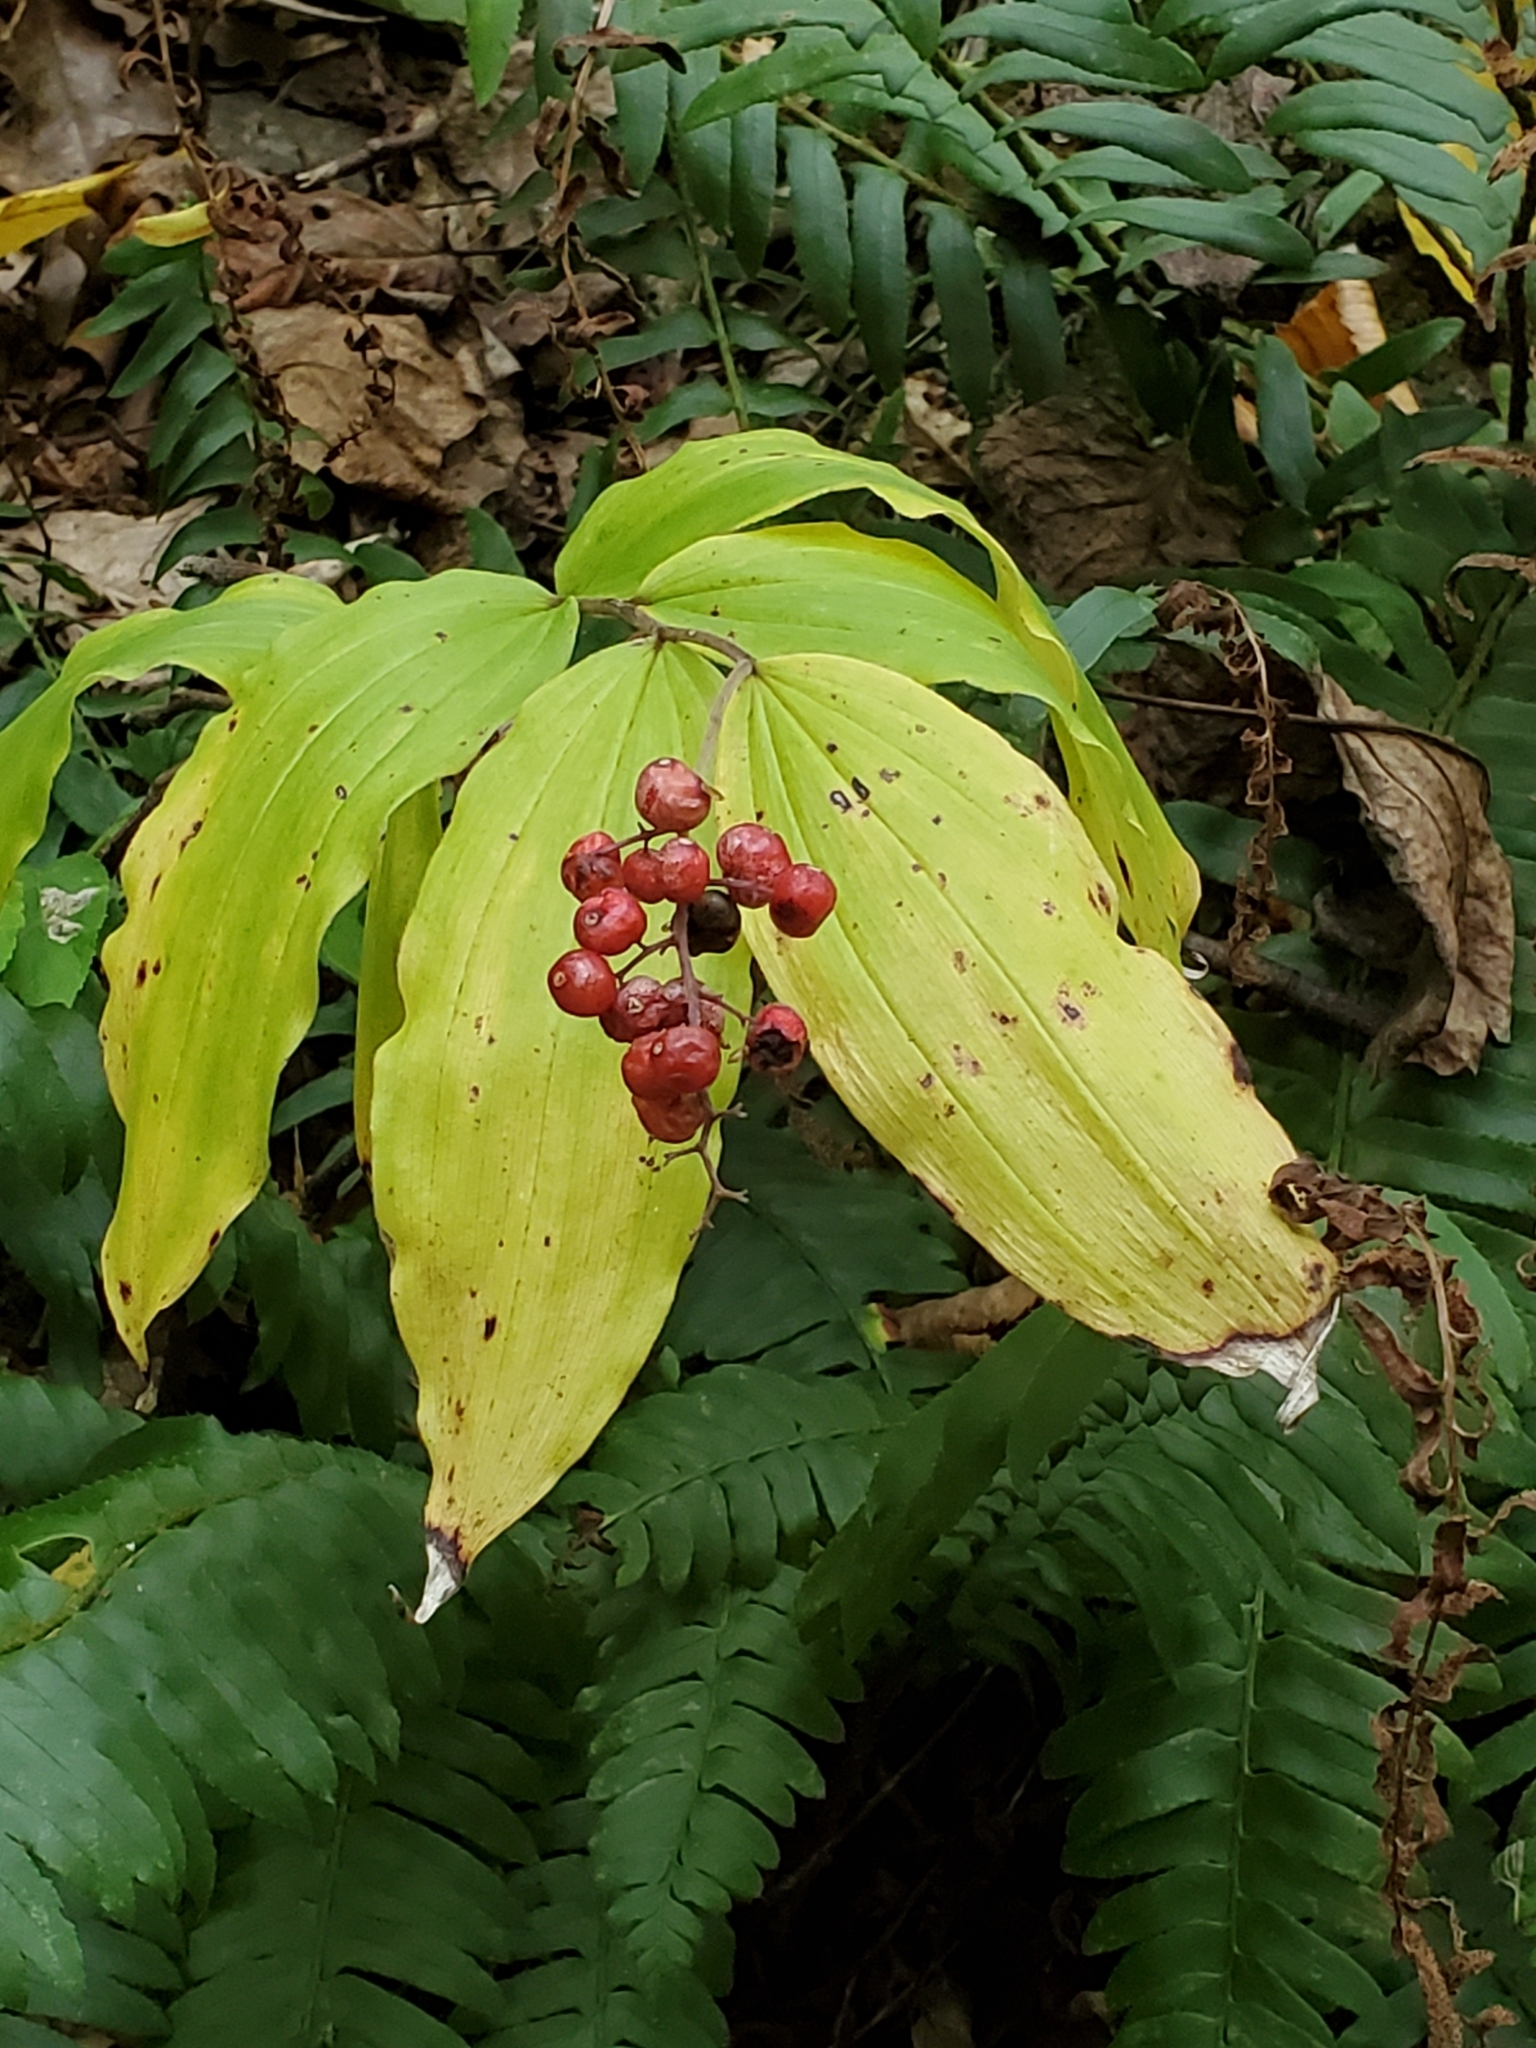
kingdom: Plantae
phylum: Tracheophyta
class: Liliopsida
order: Asparagales
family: Asparagaceae
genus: Maianthemum
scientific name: Maianthemum racemosum
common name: False spikenard
